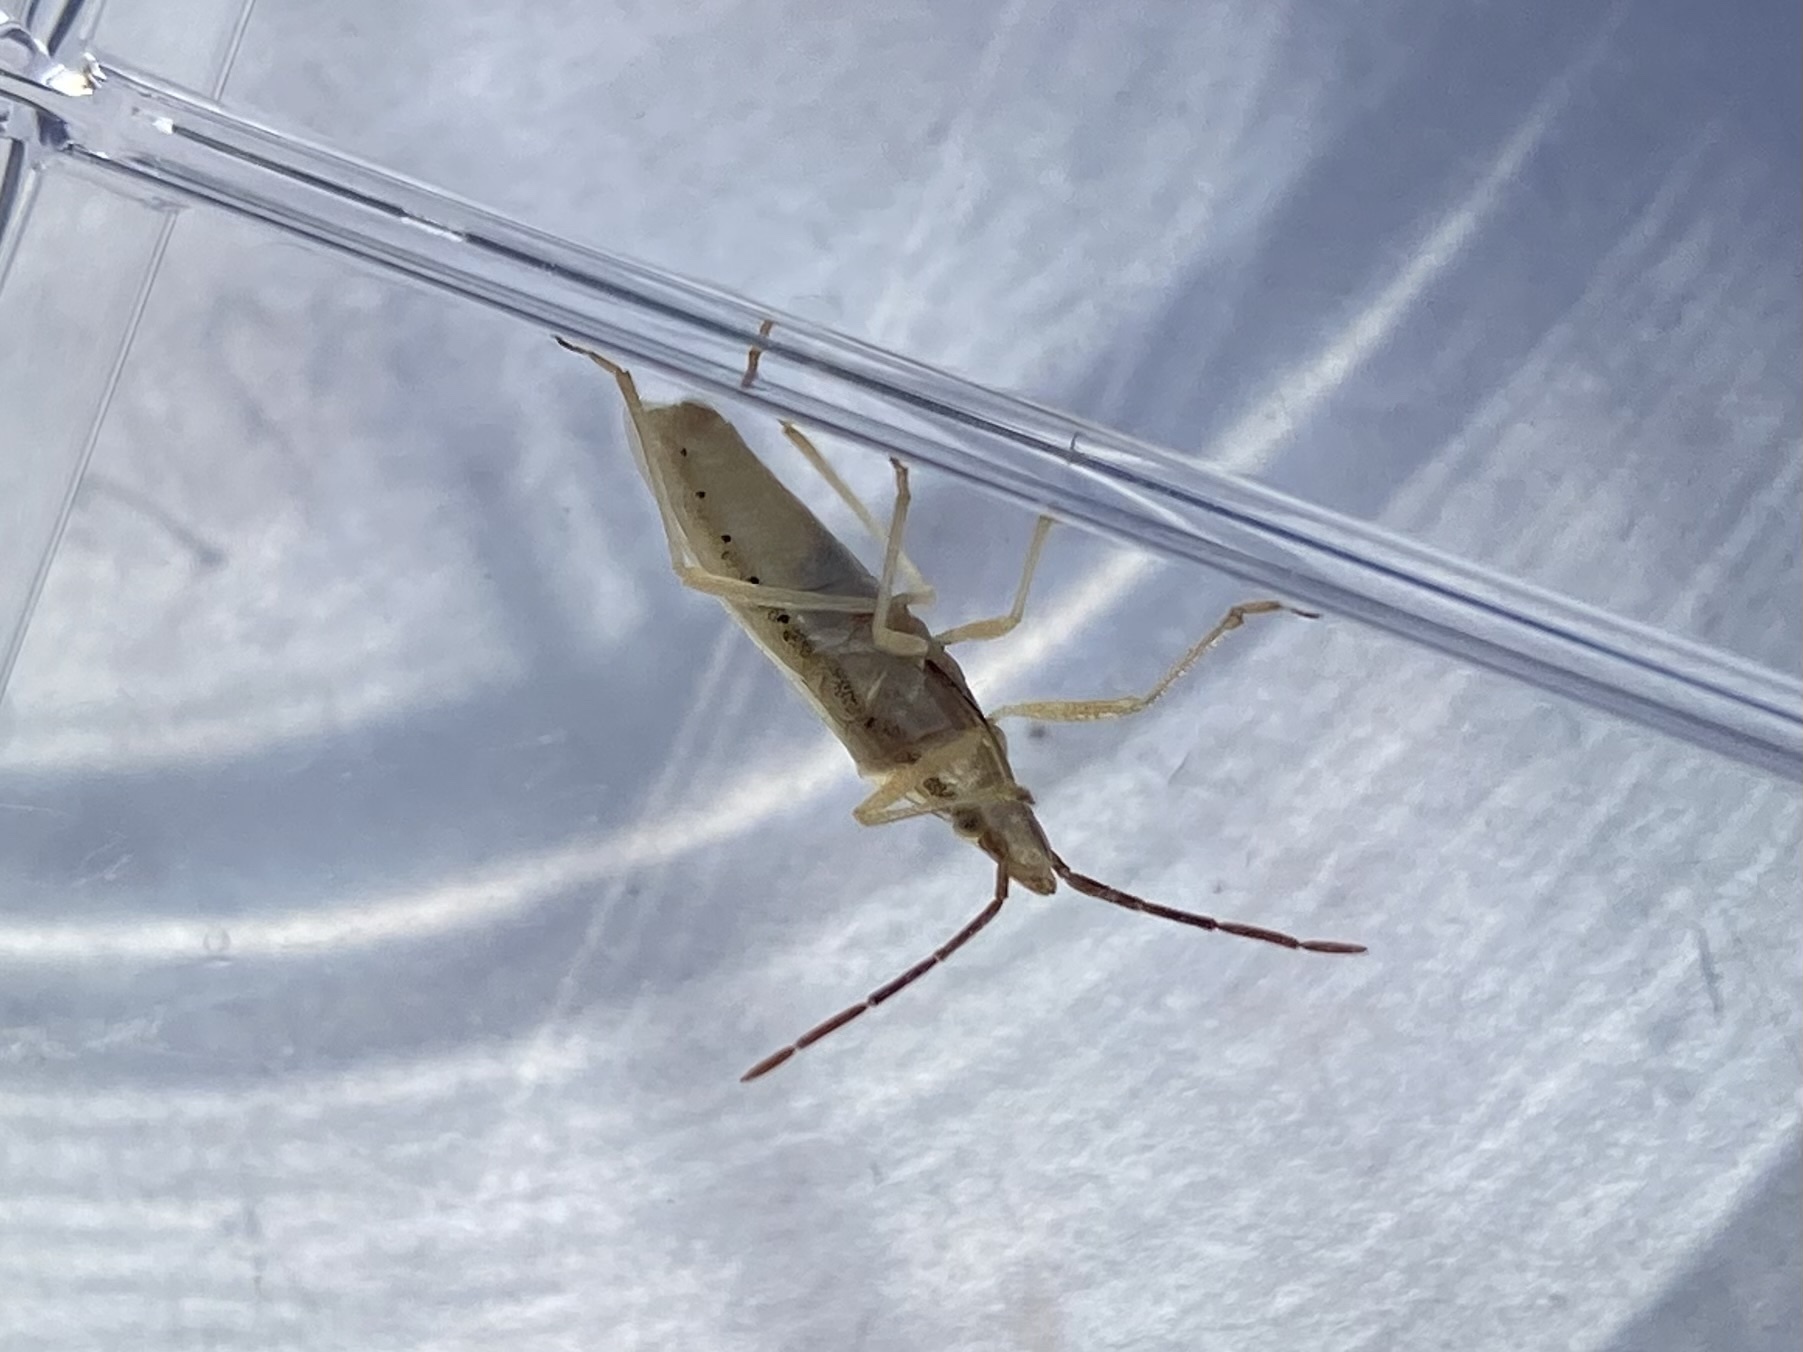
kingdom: Animalia
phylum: Arthropoda
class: Insecta
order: Hemiptera
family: Pentatomidae
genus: Mecidea
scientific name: Mecidea
